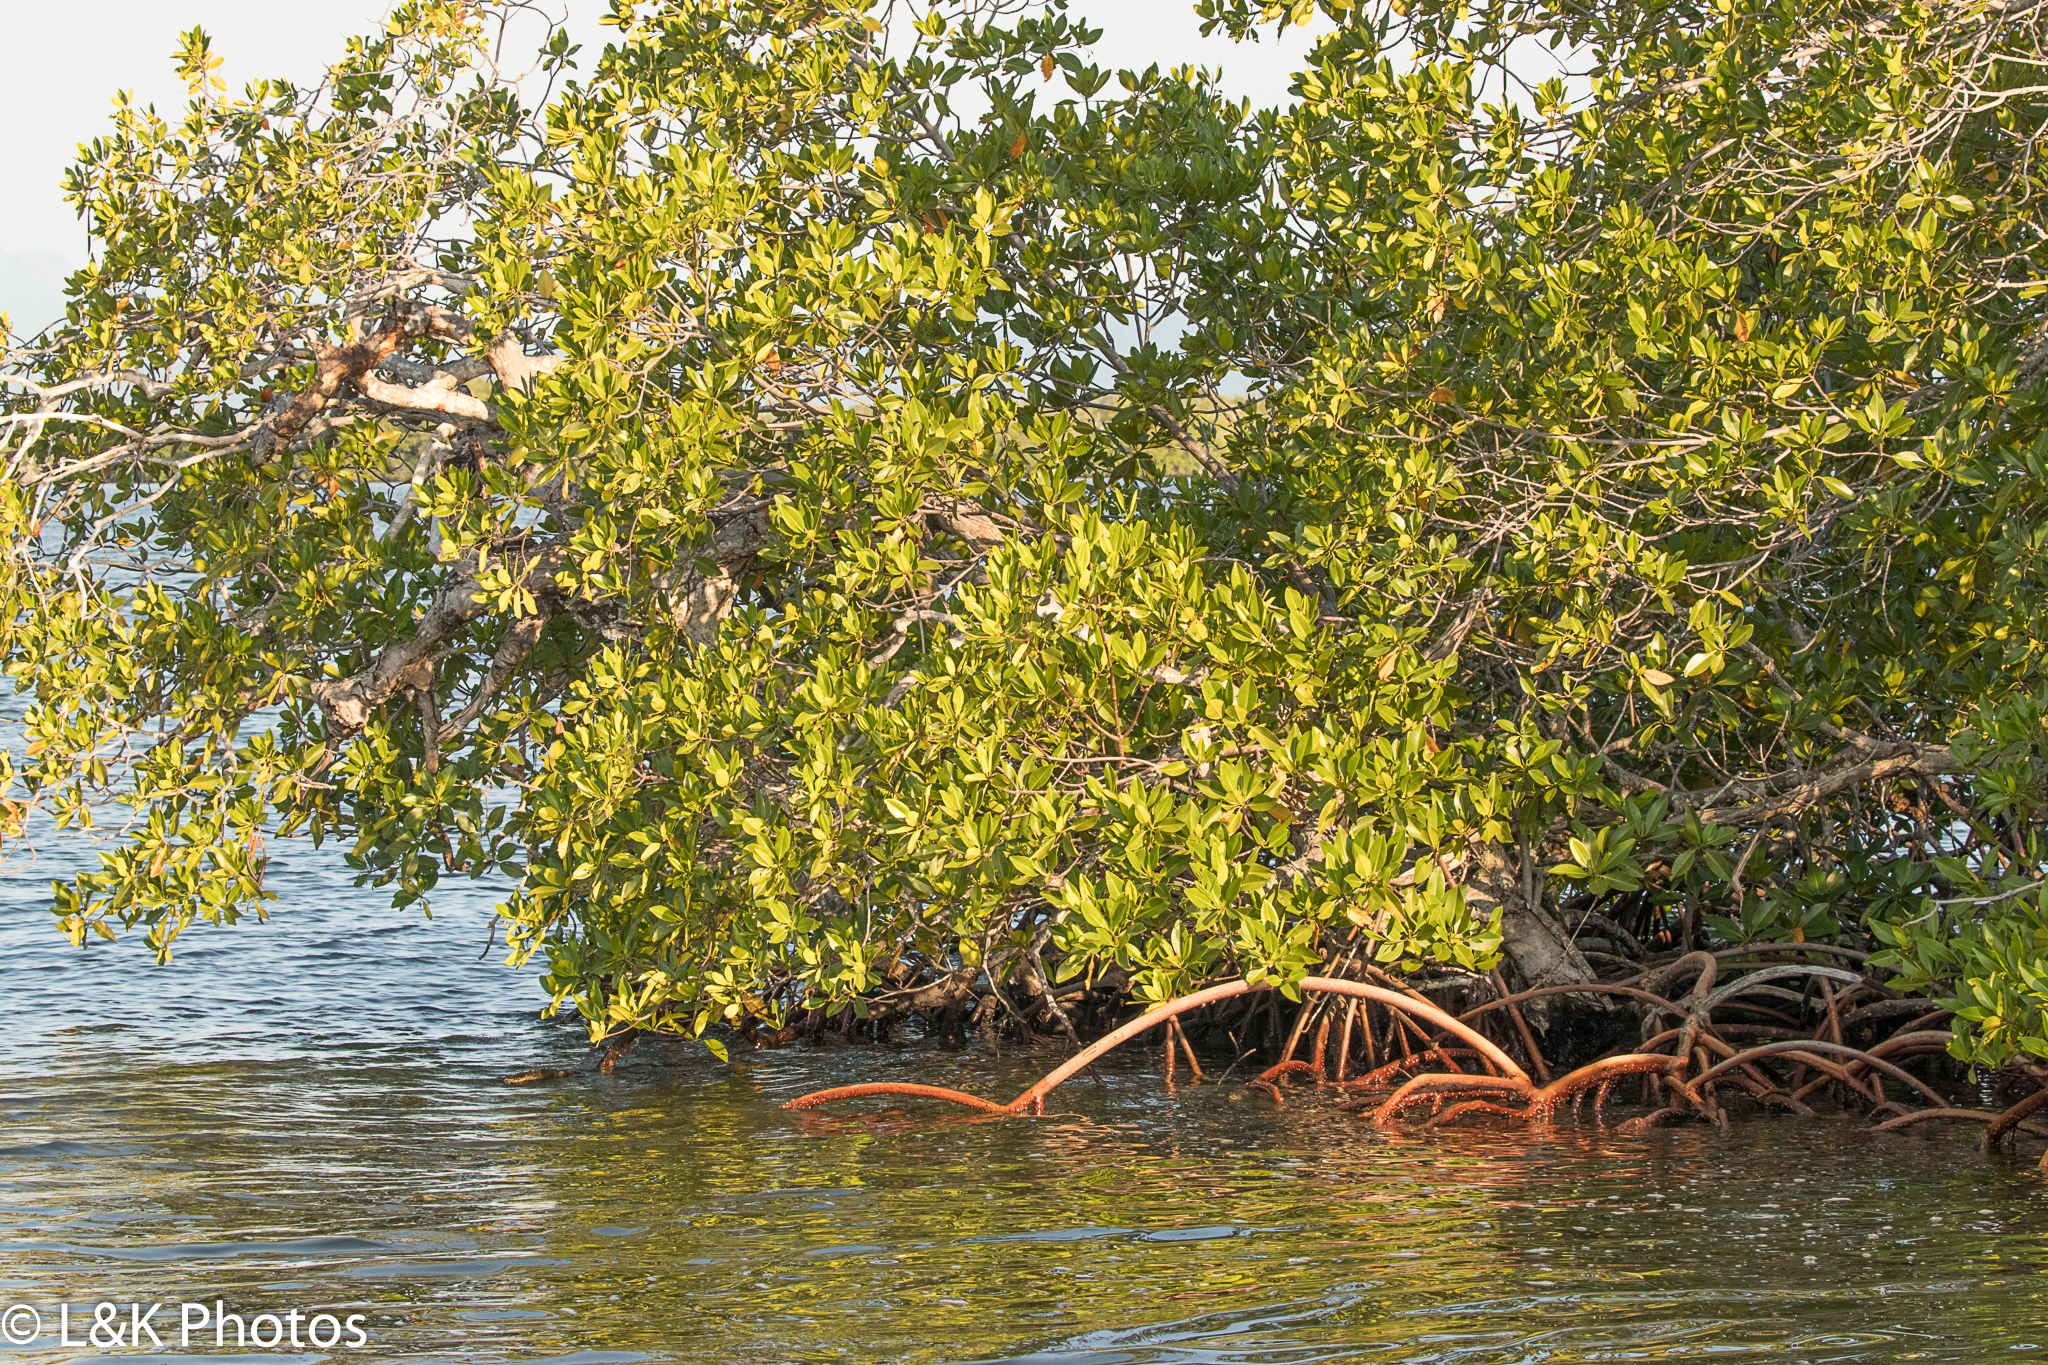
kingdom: Plantae
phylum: Tracheophyta
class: Magnoliopsida
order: Malpighiales
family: Rhizophoraceae
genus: Rhizophora
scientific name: Rhizophora mangle
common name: Red mangrove
